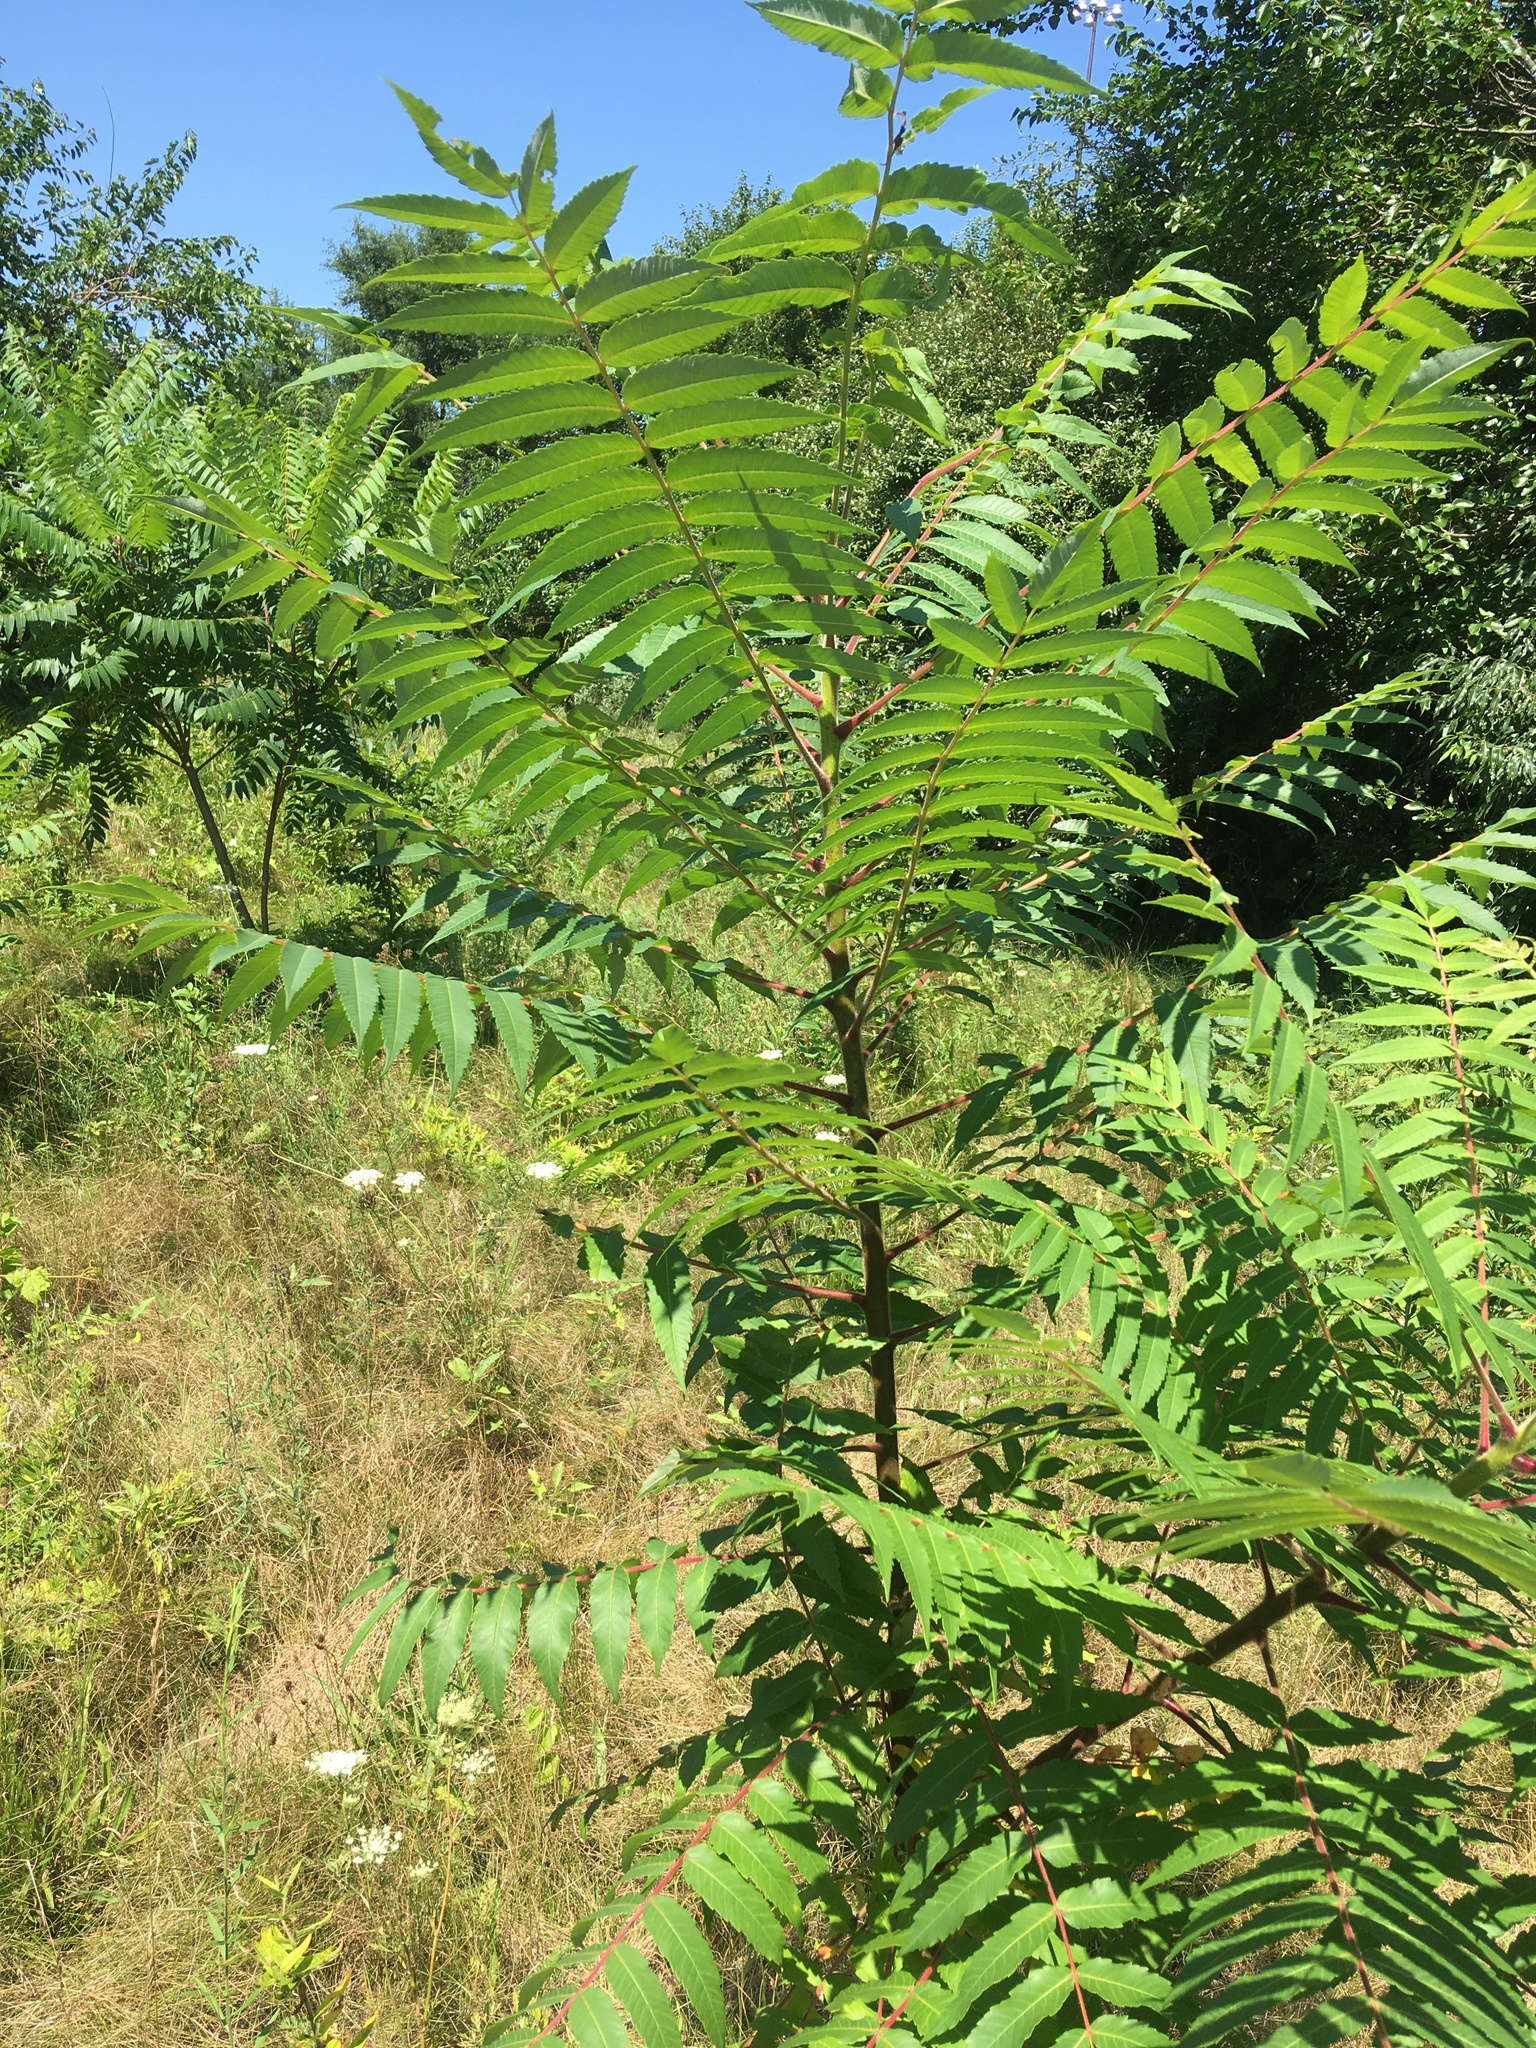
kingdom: Plantae
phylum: Tracheophyta
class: Magnoliopsida
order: Sapindales
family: Anacardiaceae
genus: Rhus
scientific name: Rhus typhina
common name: Staghorn sumac
